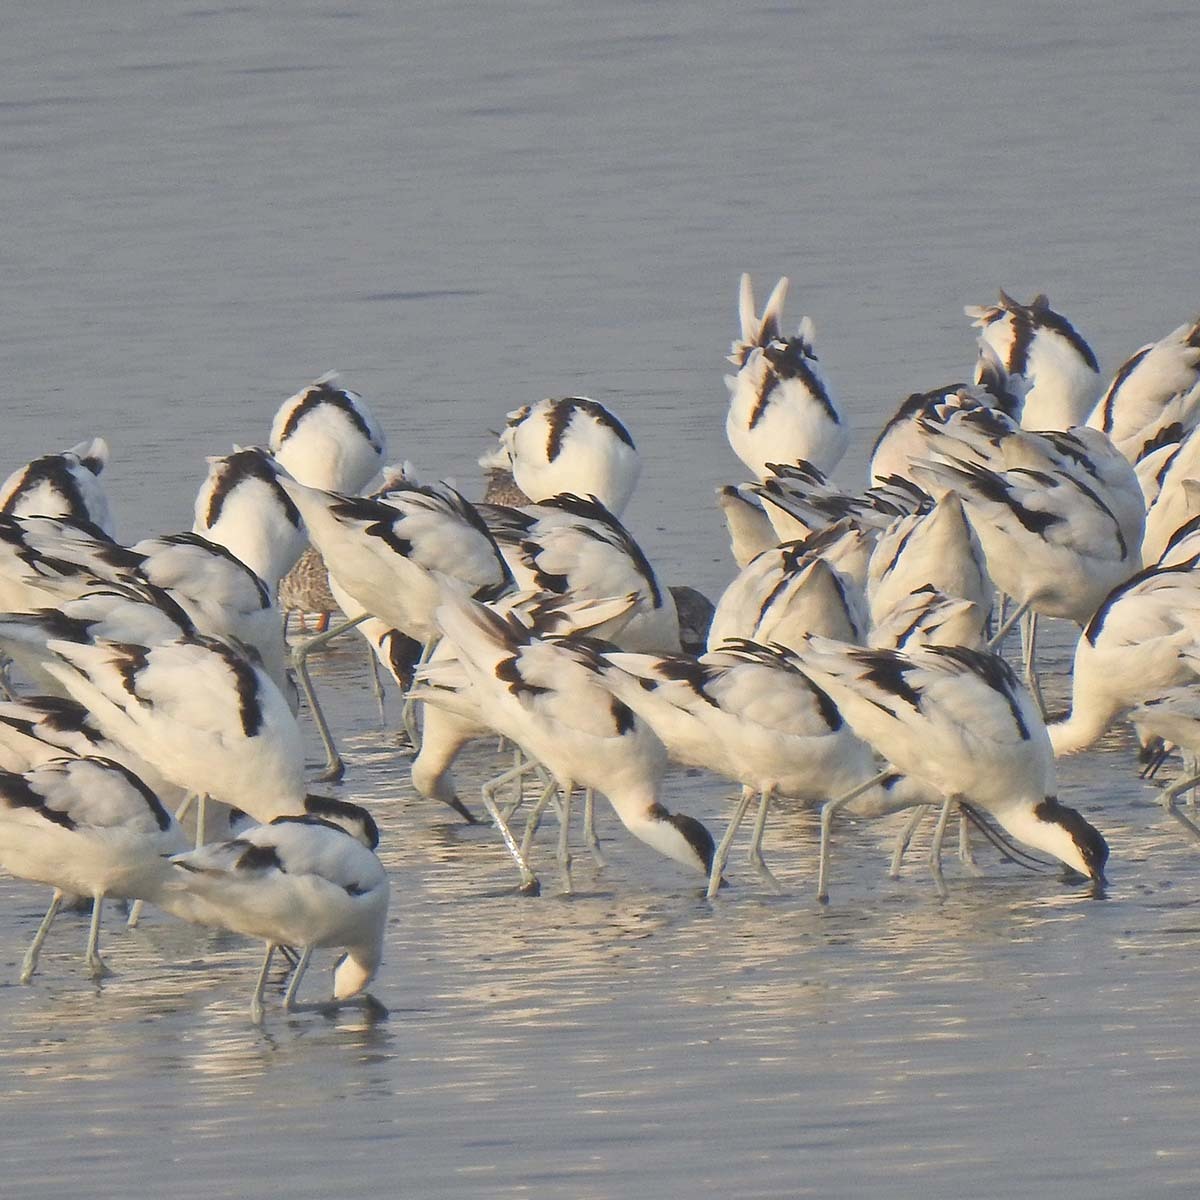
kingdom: Animalia
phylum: Chordata
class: Aves
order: Charadriiformes
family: Recurvirostridae
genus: Recurvirostra
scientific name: Recurvirostra avosetta
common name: Pied avocet
